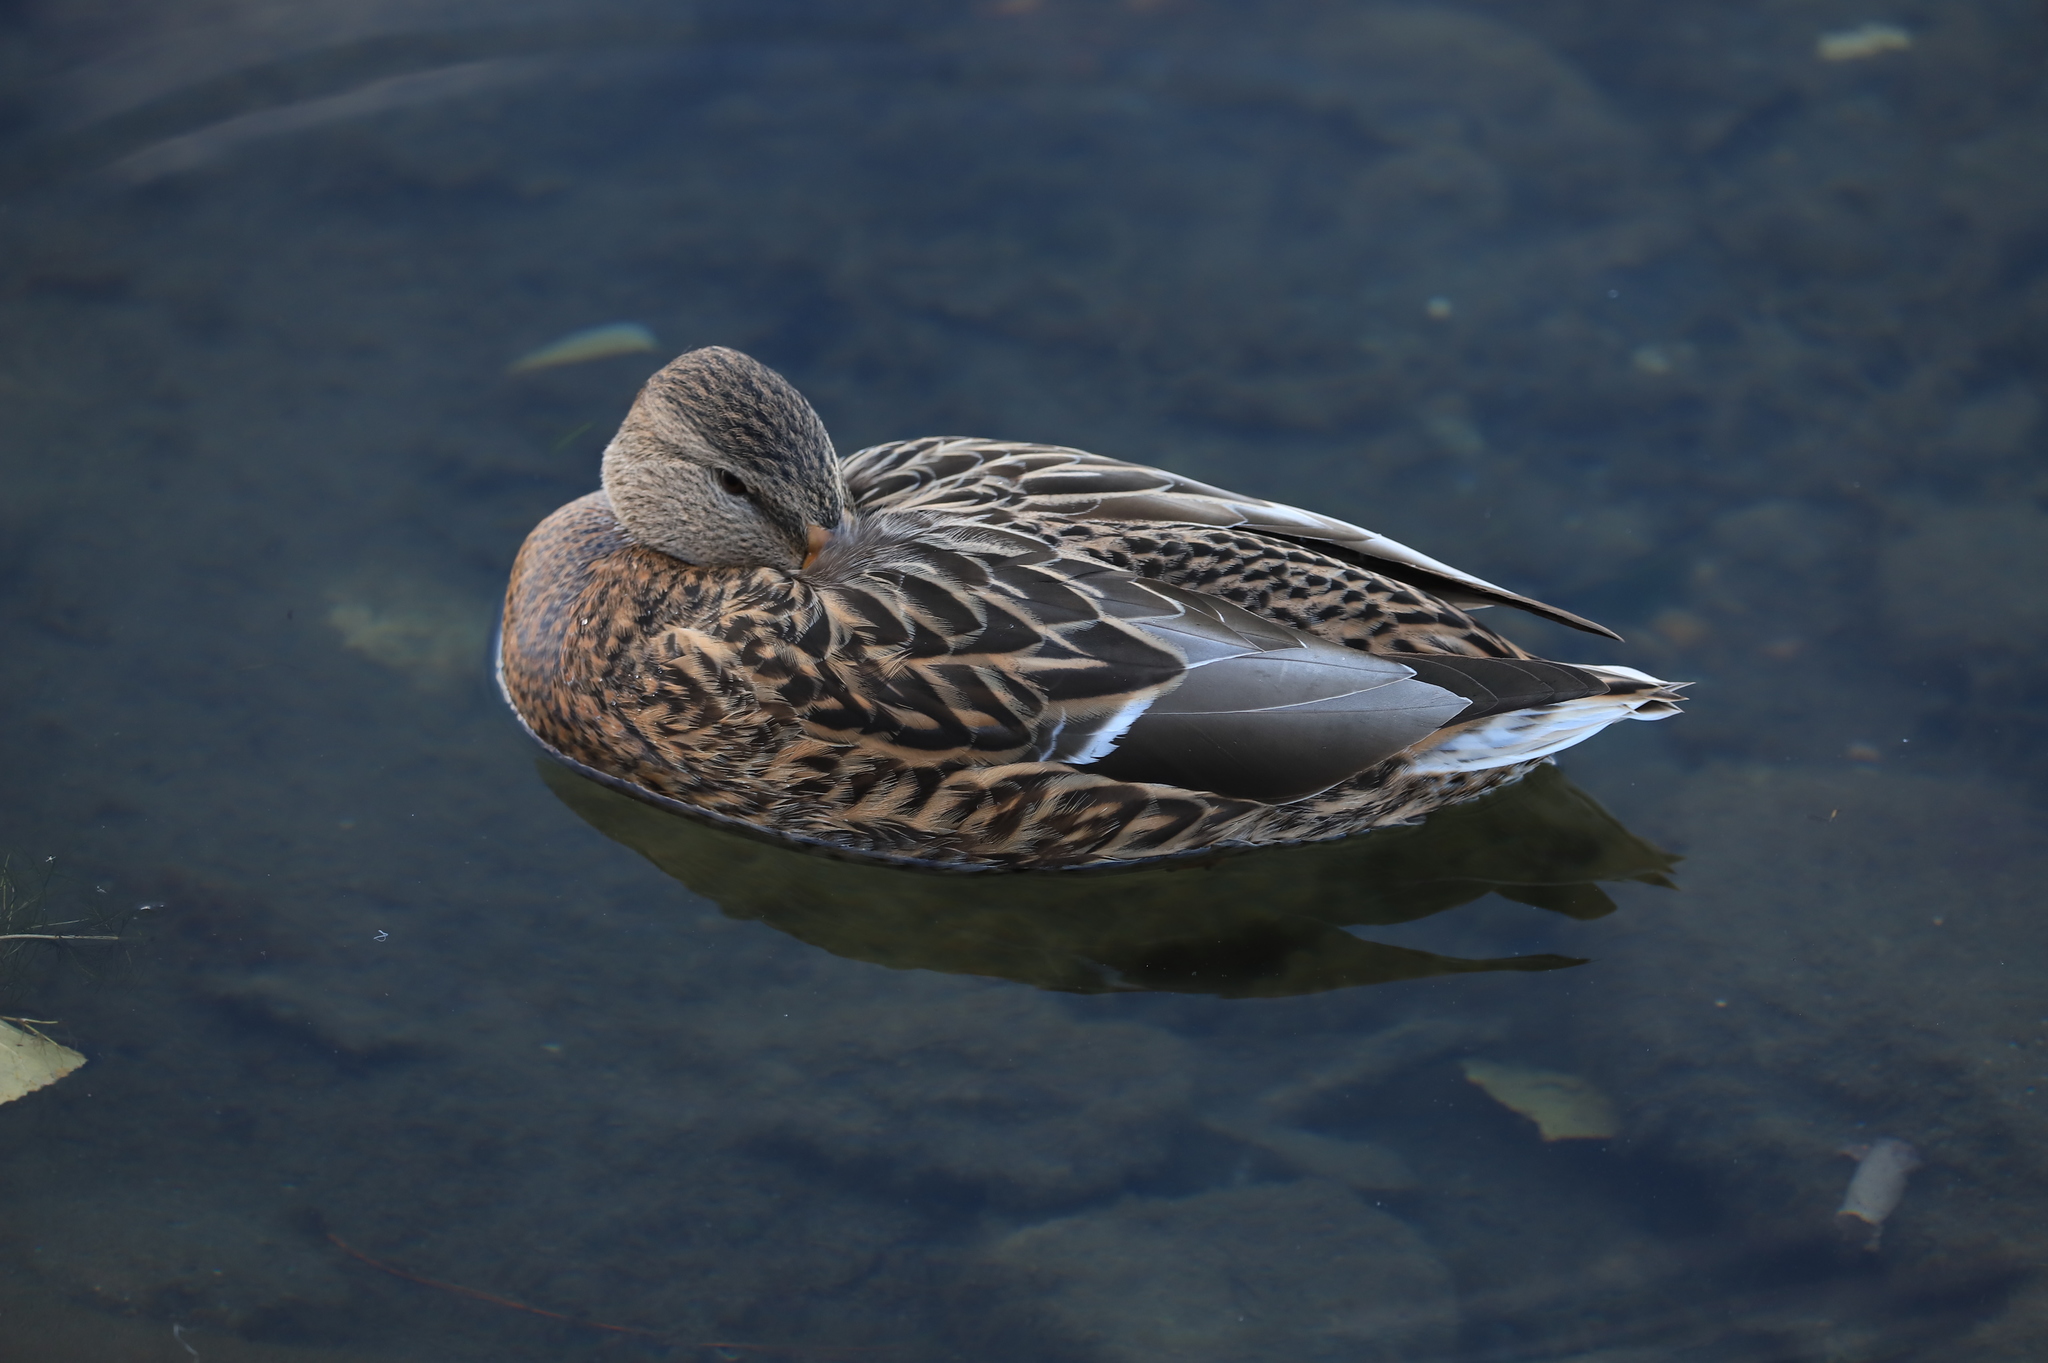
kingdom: Animalia
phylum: Chordata
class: Aves
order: Anseriformes
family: Anatidae
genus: Anas
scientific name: Anas platyrhynchos
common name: Mallard
